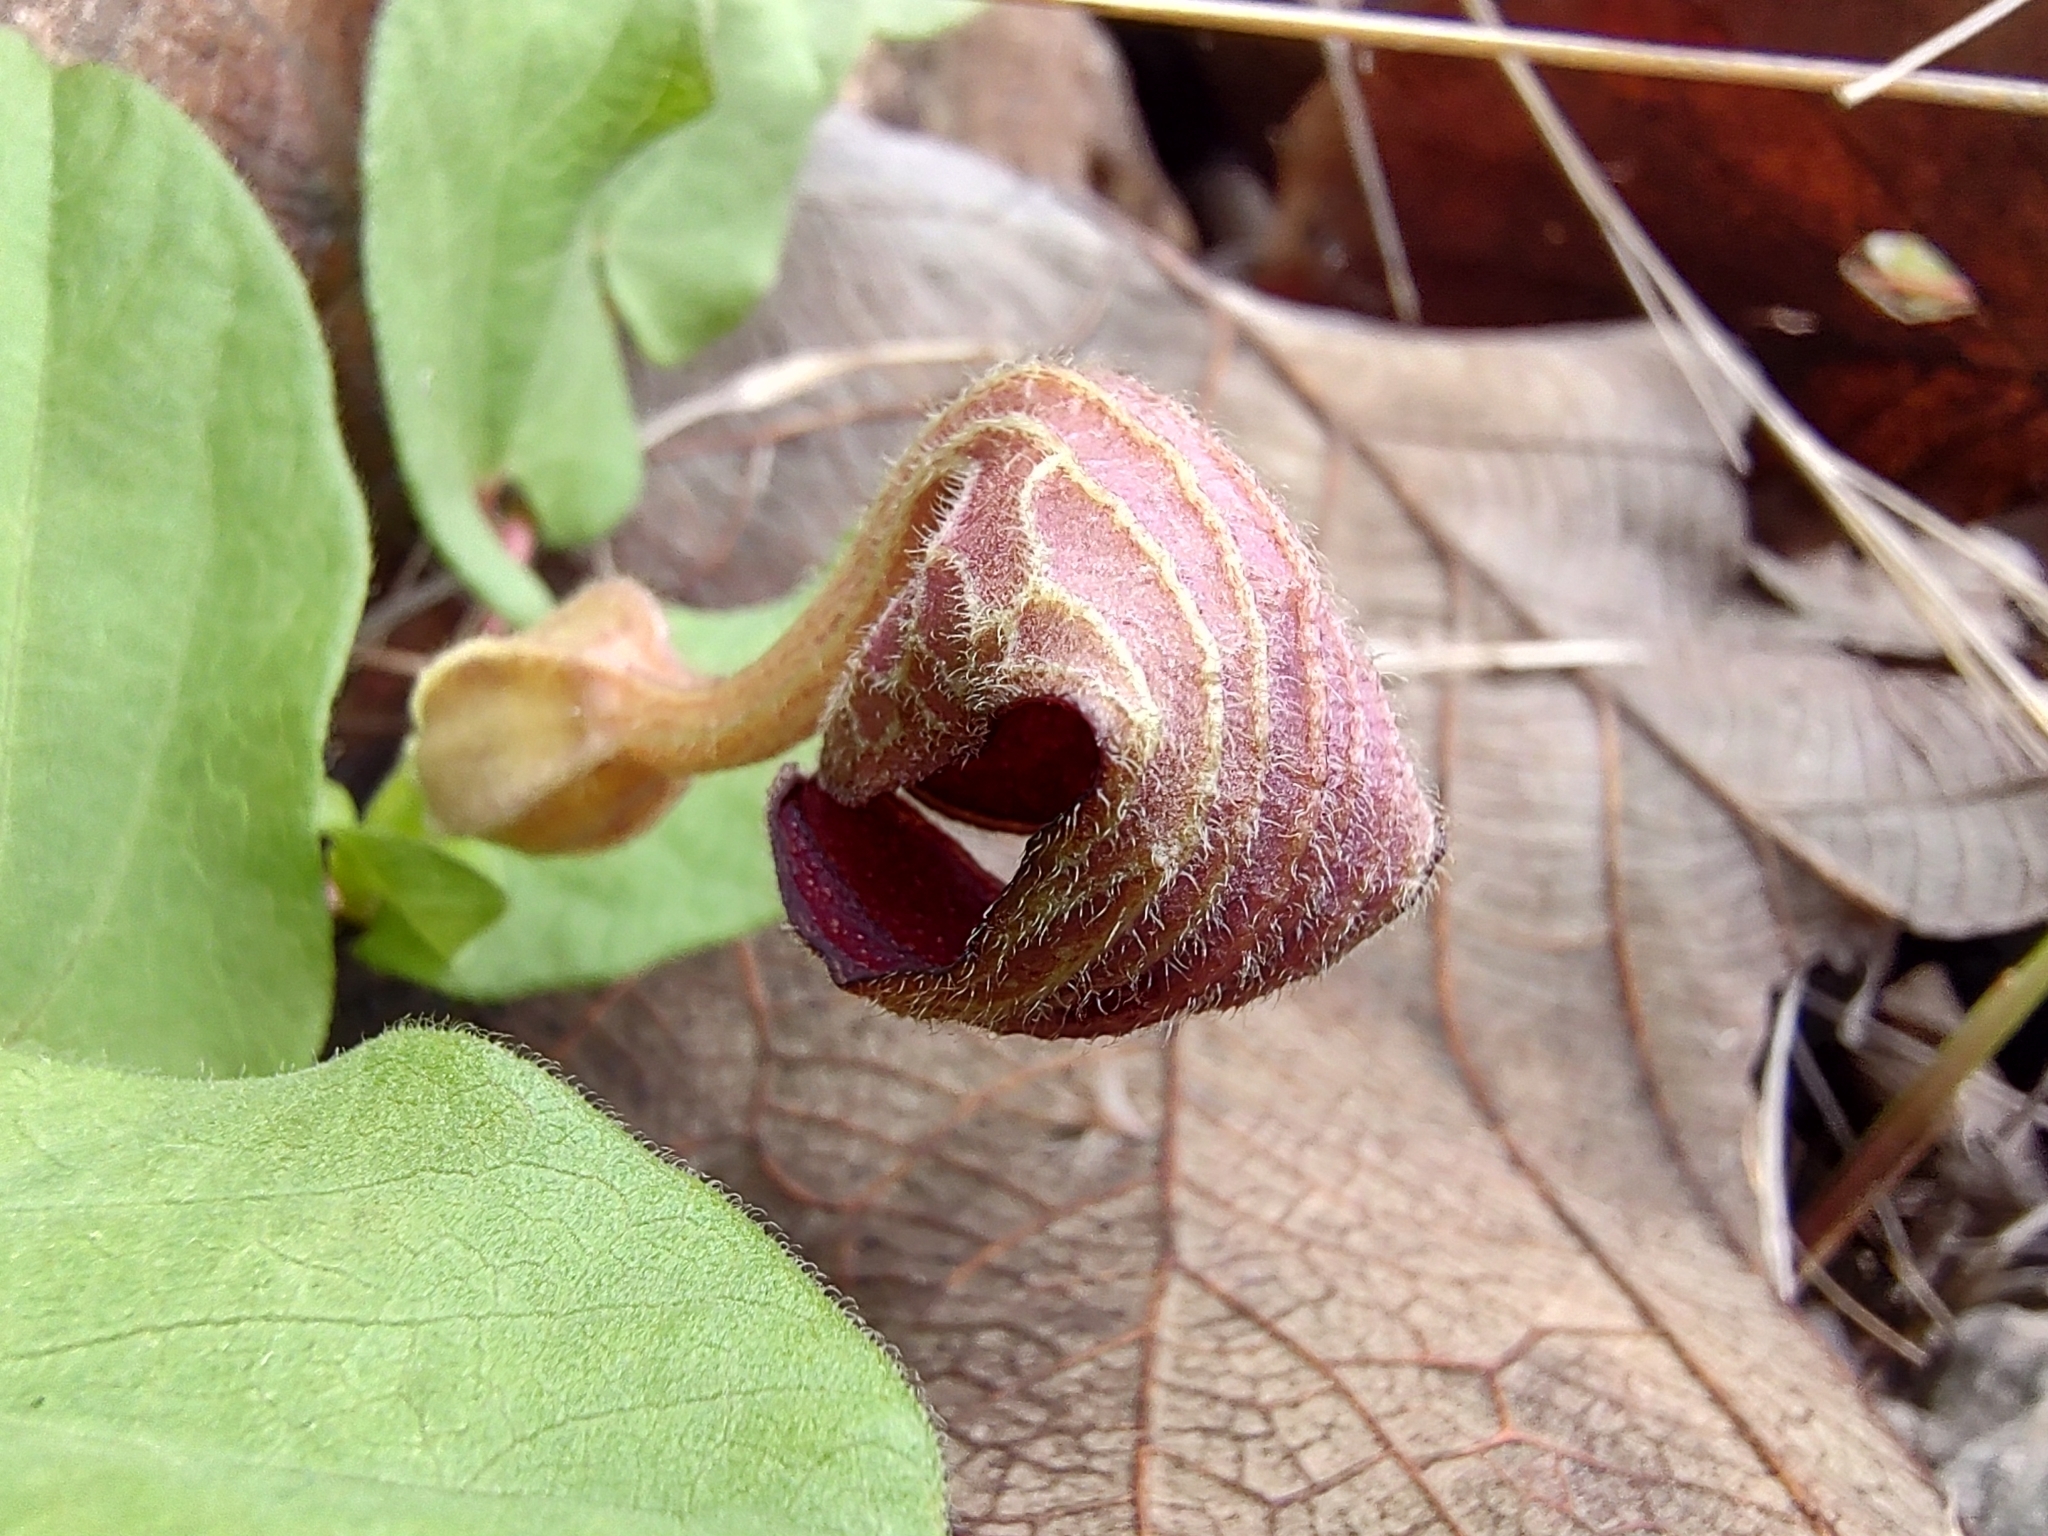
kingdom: Plantae
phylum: Tracheophyta
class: Magnoliopsida
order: Piperales
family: Aristolochiaceae
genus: Aristolochia
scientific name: Aristolochia bracteosa
